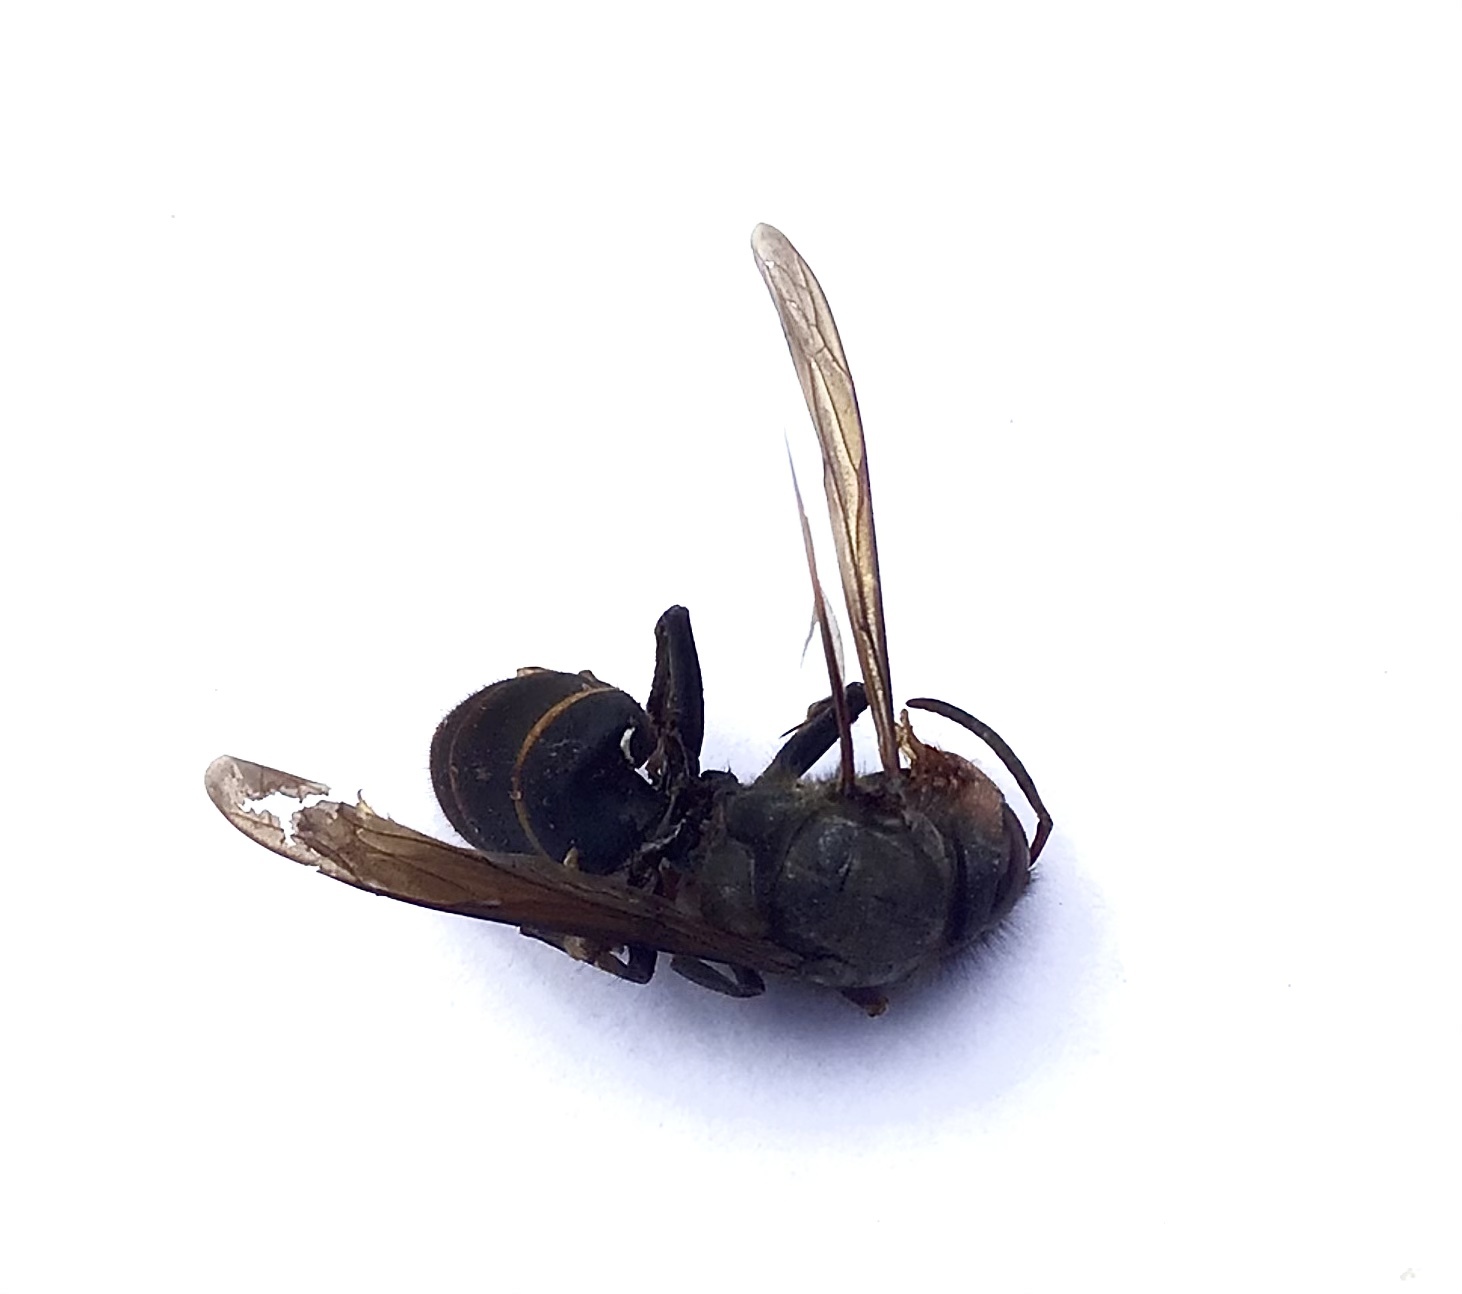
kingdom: Animalia
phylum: Arthropoda
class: Insecta
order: Hymenoptera
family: Vespidae
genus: Vespa
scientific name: Vespa velutina
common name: Asian hornet
